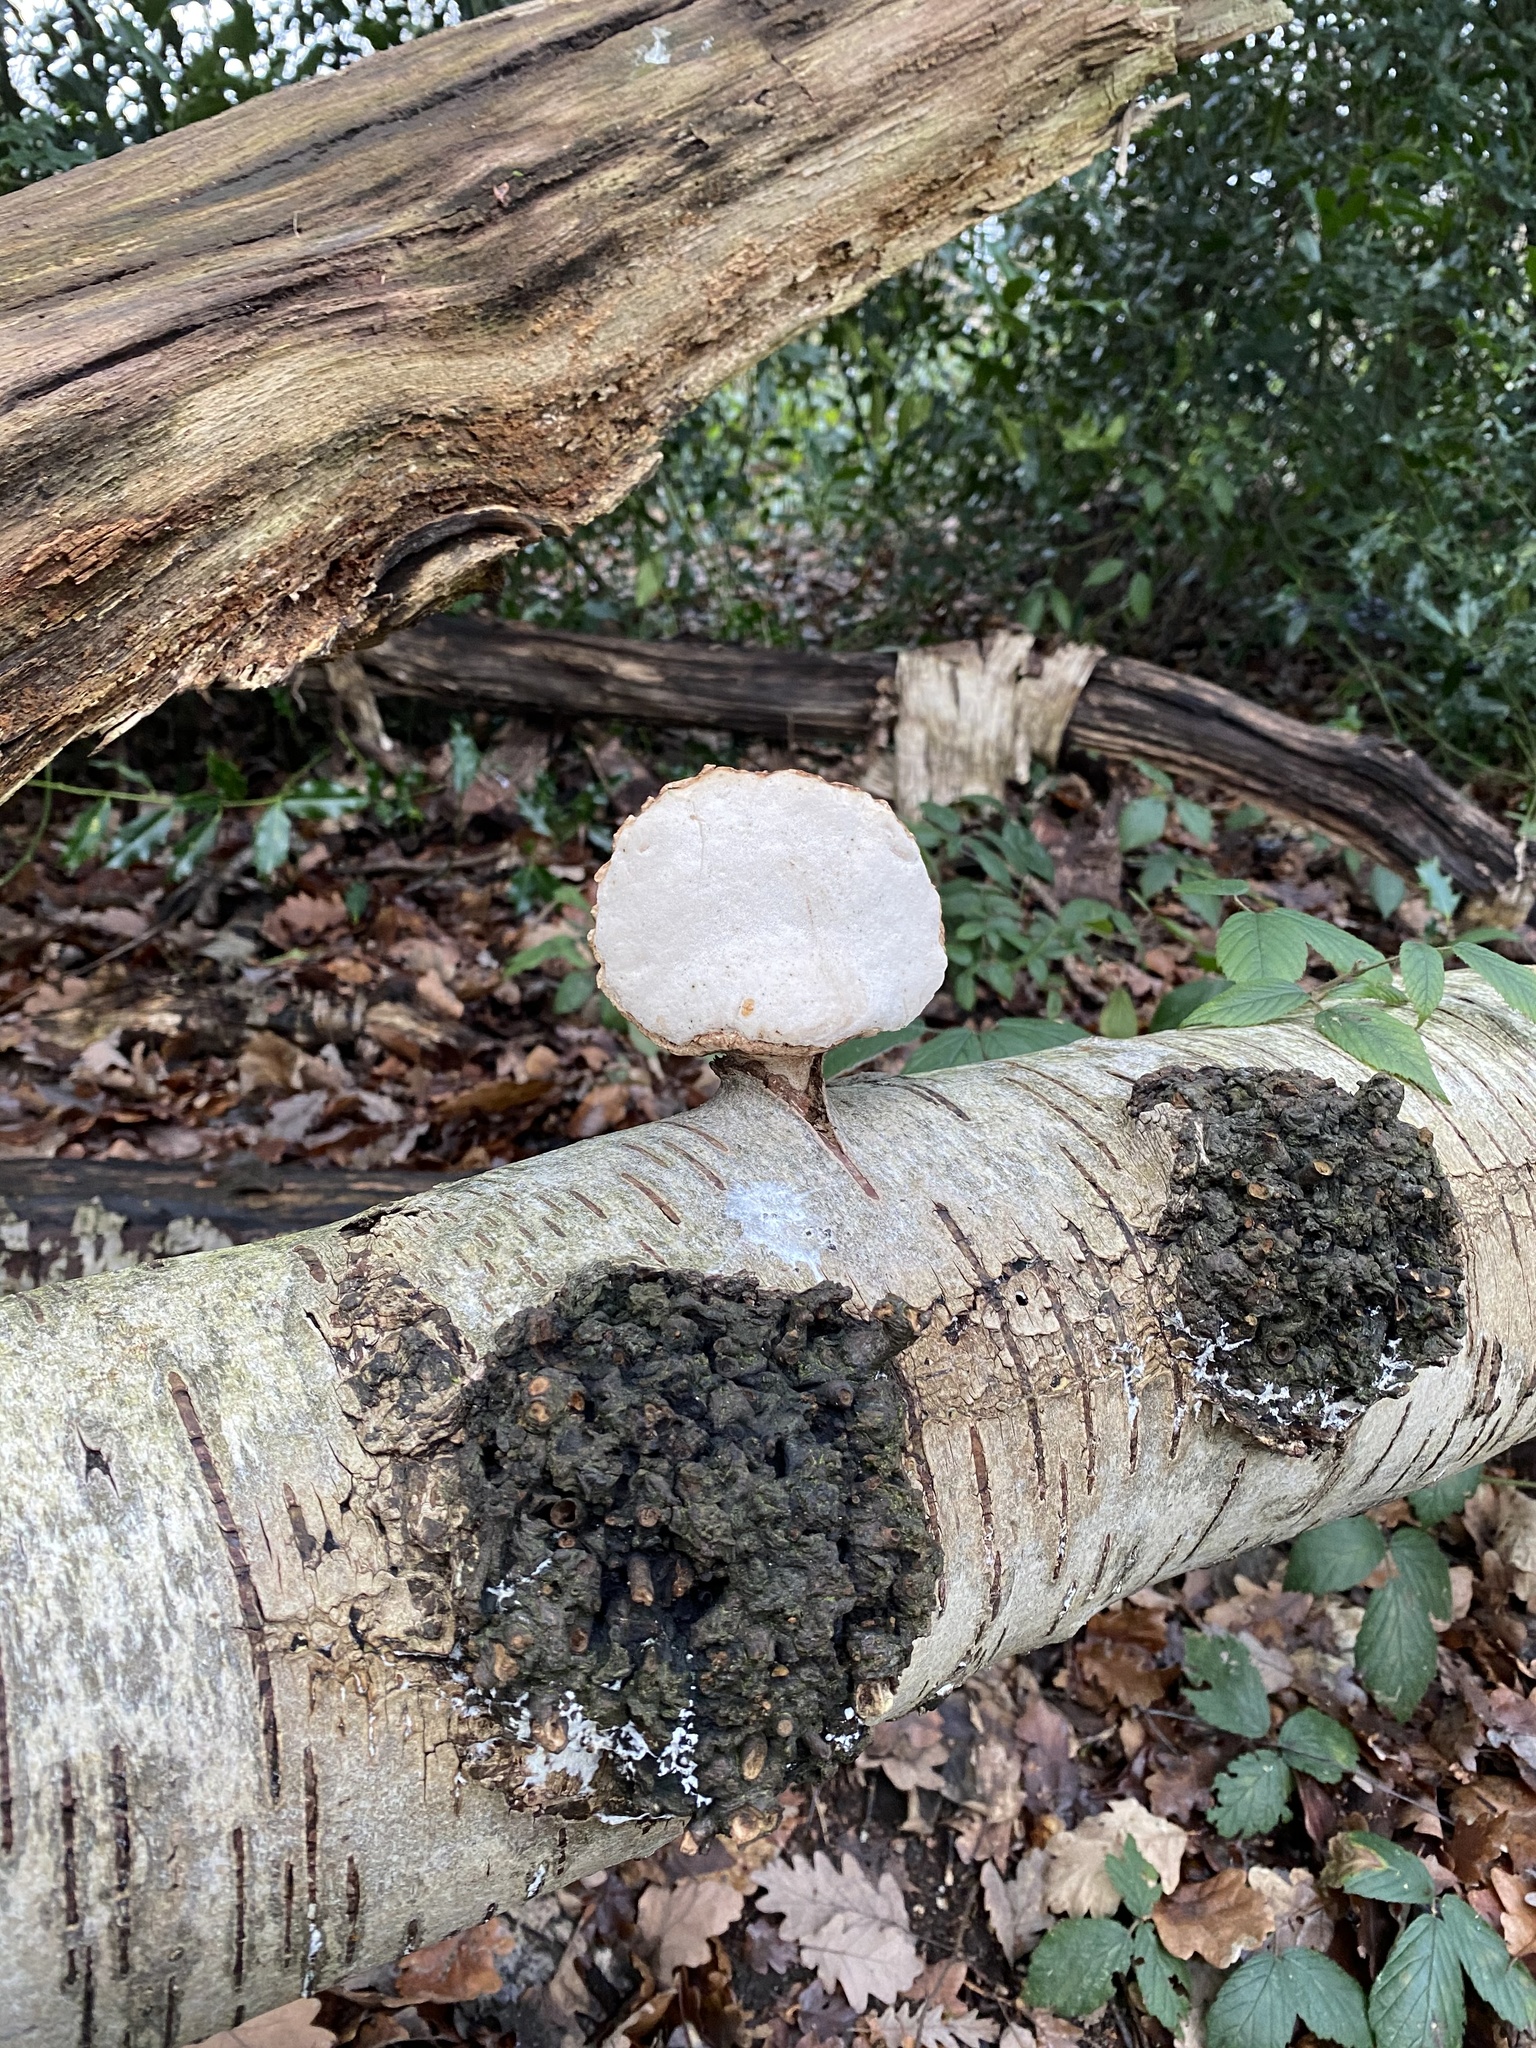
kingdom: Fungi
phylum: Basidiomycota
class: Agaricomycetes
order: Polyporales
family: Fomitopsidaceae
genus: Fomitopsis
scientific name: Fomitopsis betulina
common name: Birch polypore
